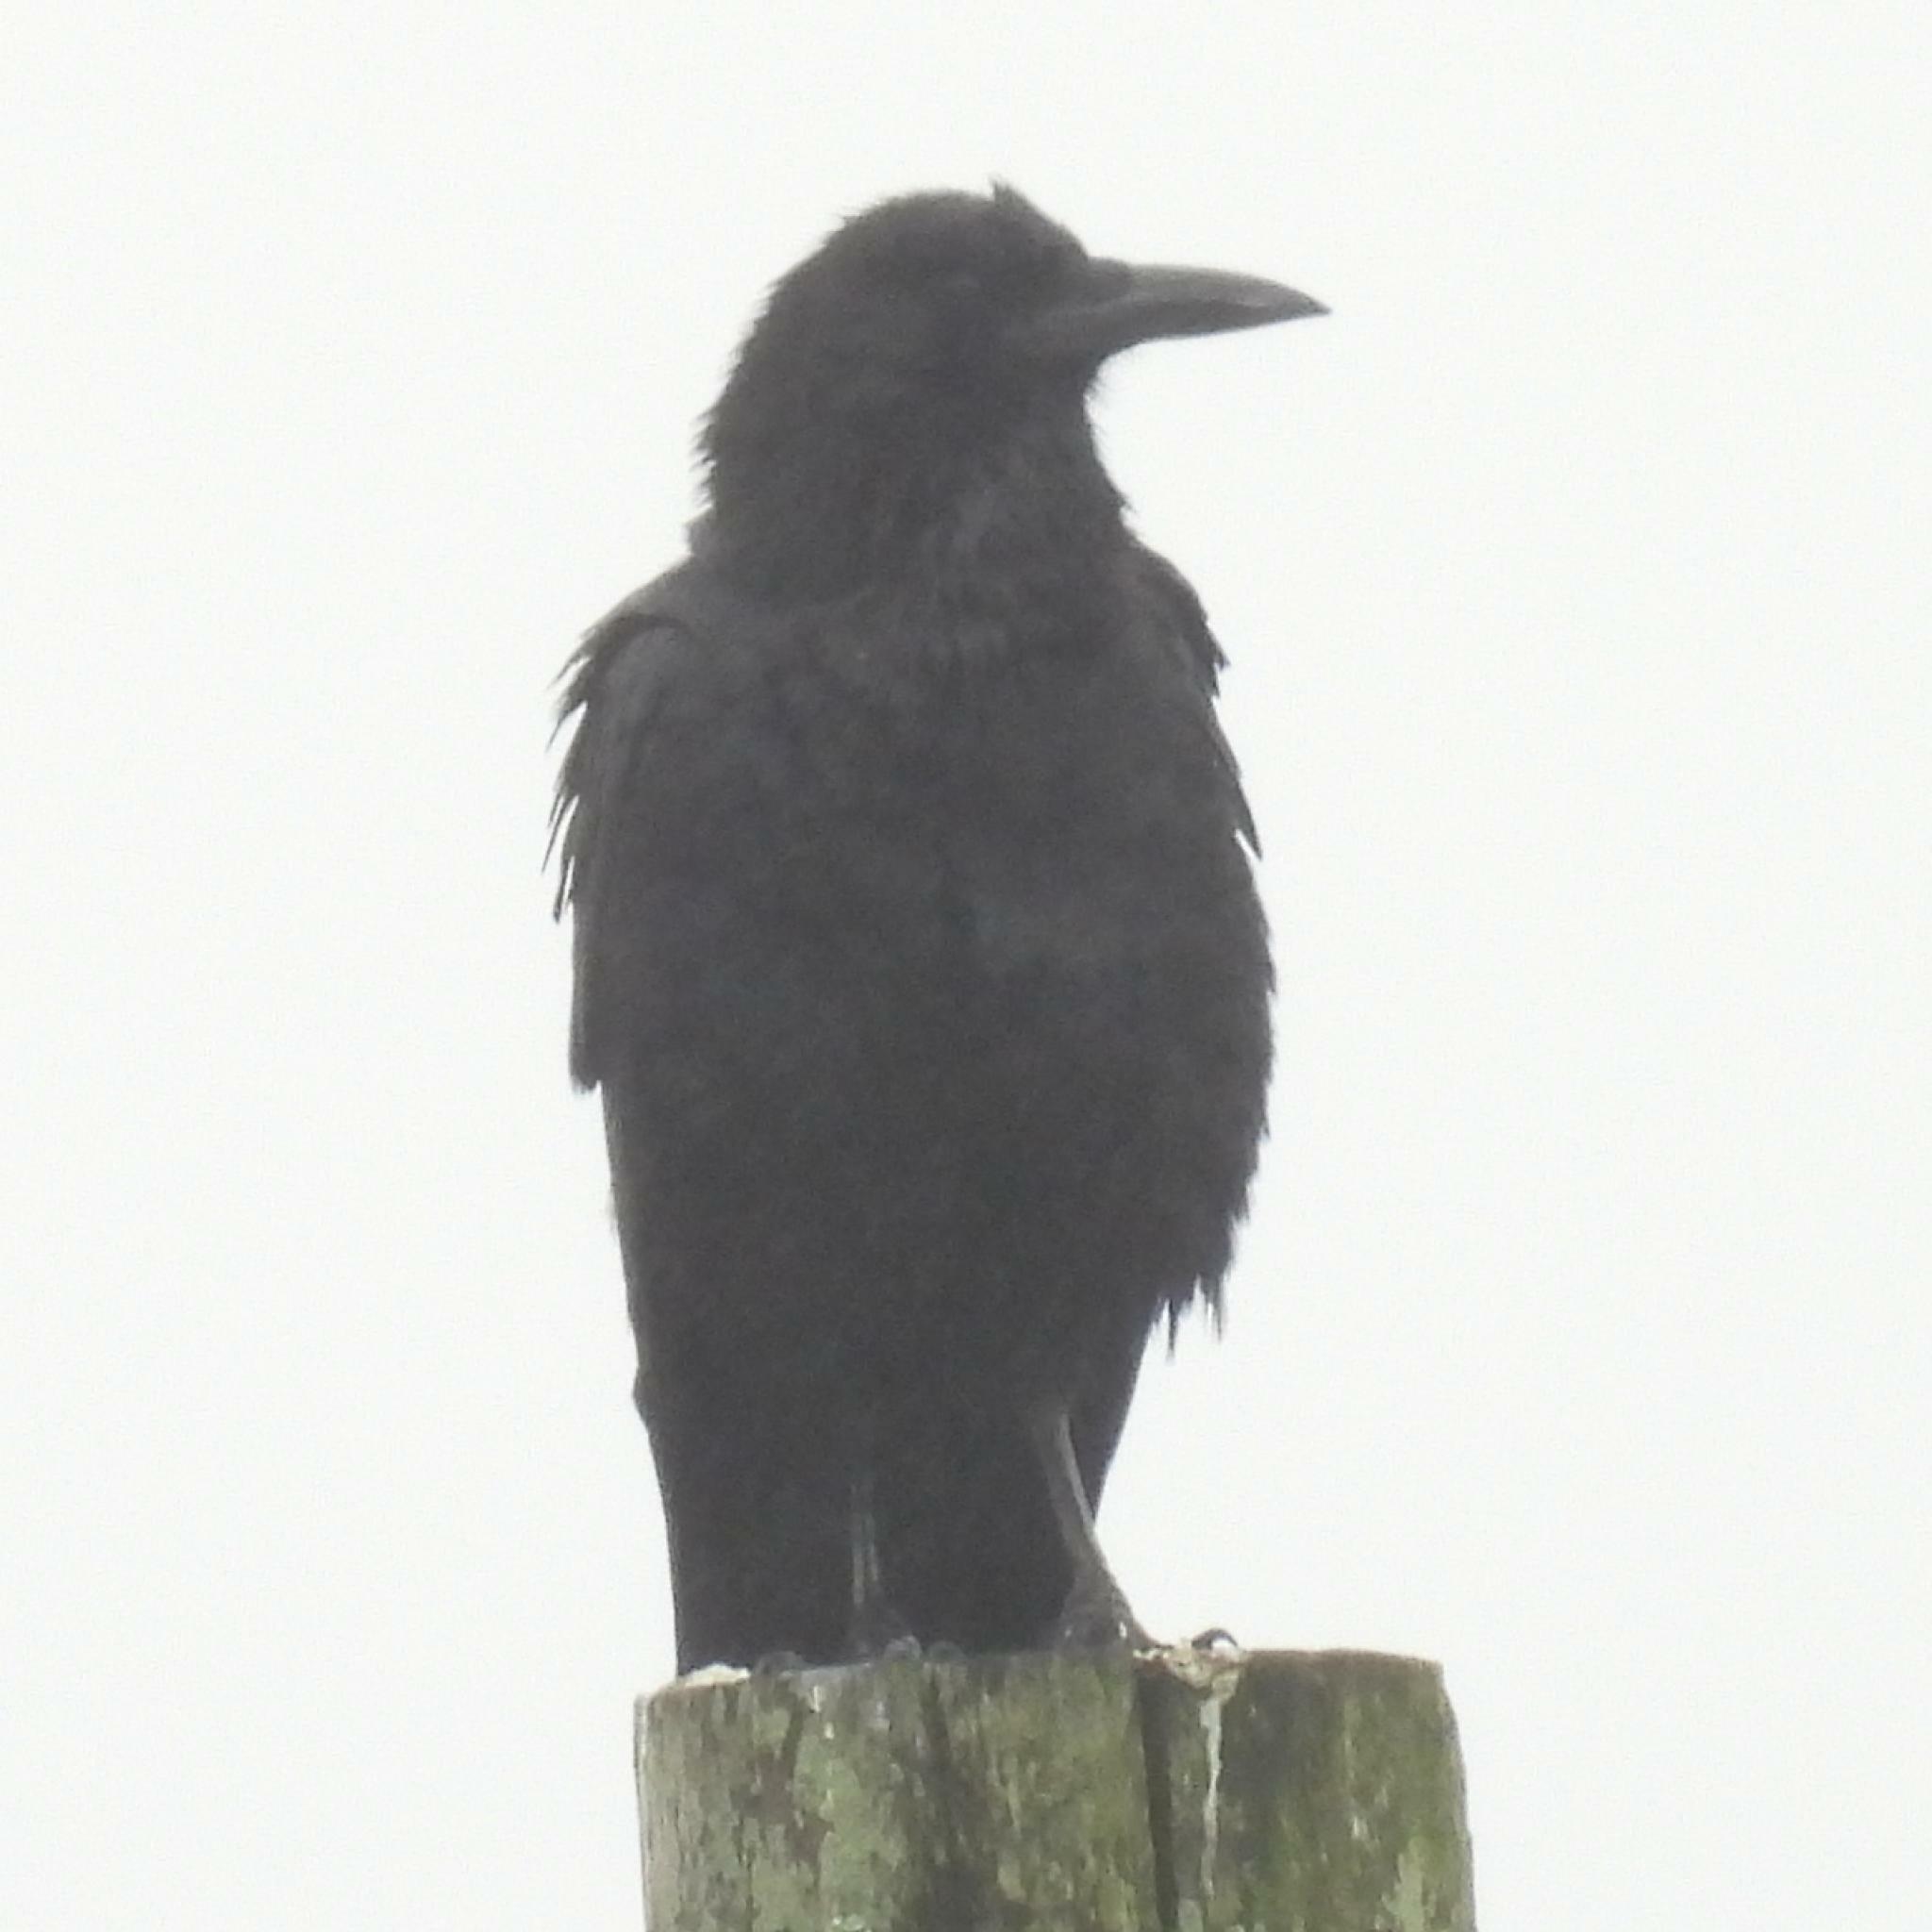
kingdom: Animalia
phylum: Chordata
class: Aves
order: Passeriformes
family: Corvidae
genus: Corvus
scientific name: Corvus capensis
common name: Cape crow
